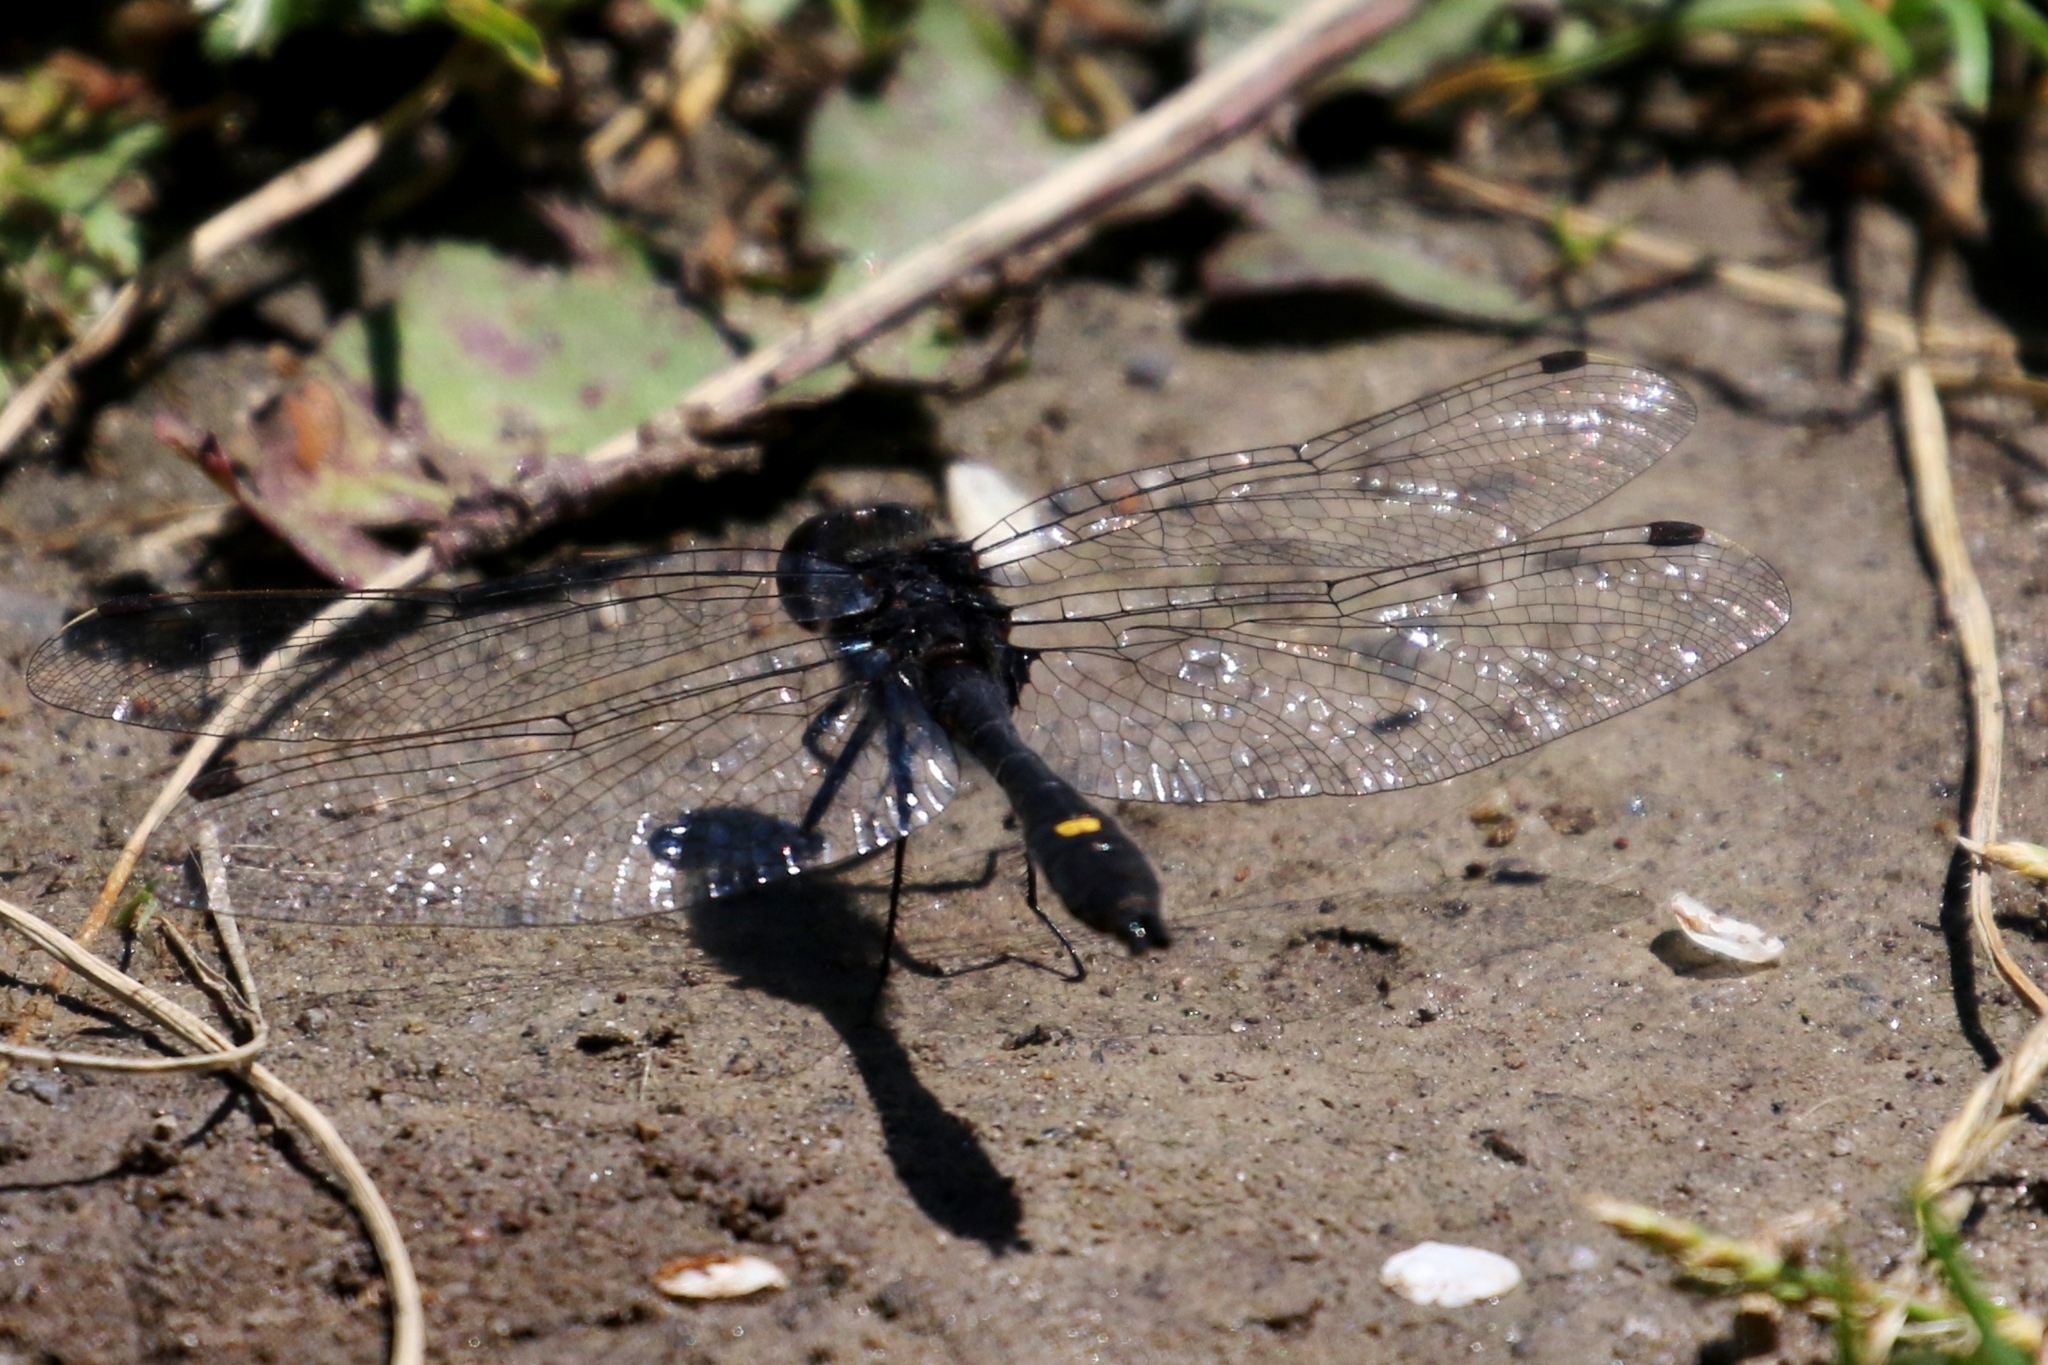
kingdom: Animalia
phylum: Arthropoda
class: Insecta
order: Odonata
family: Libellulidae
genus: Leucorrhinia
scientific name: Leucorrhinia intacta
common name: Dot-tailed whiteface
